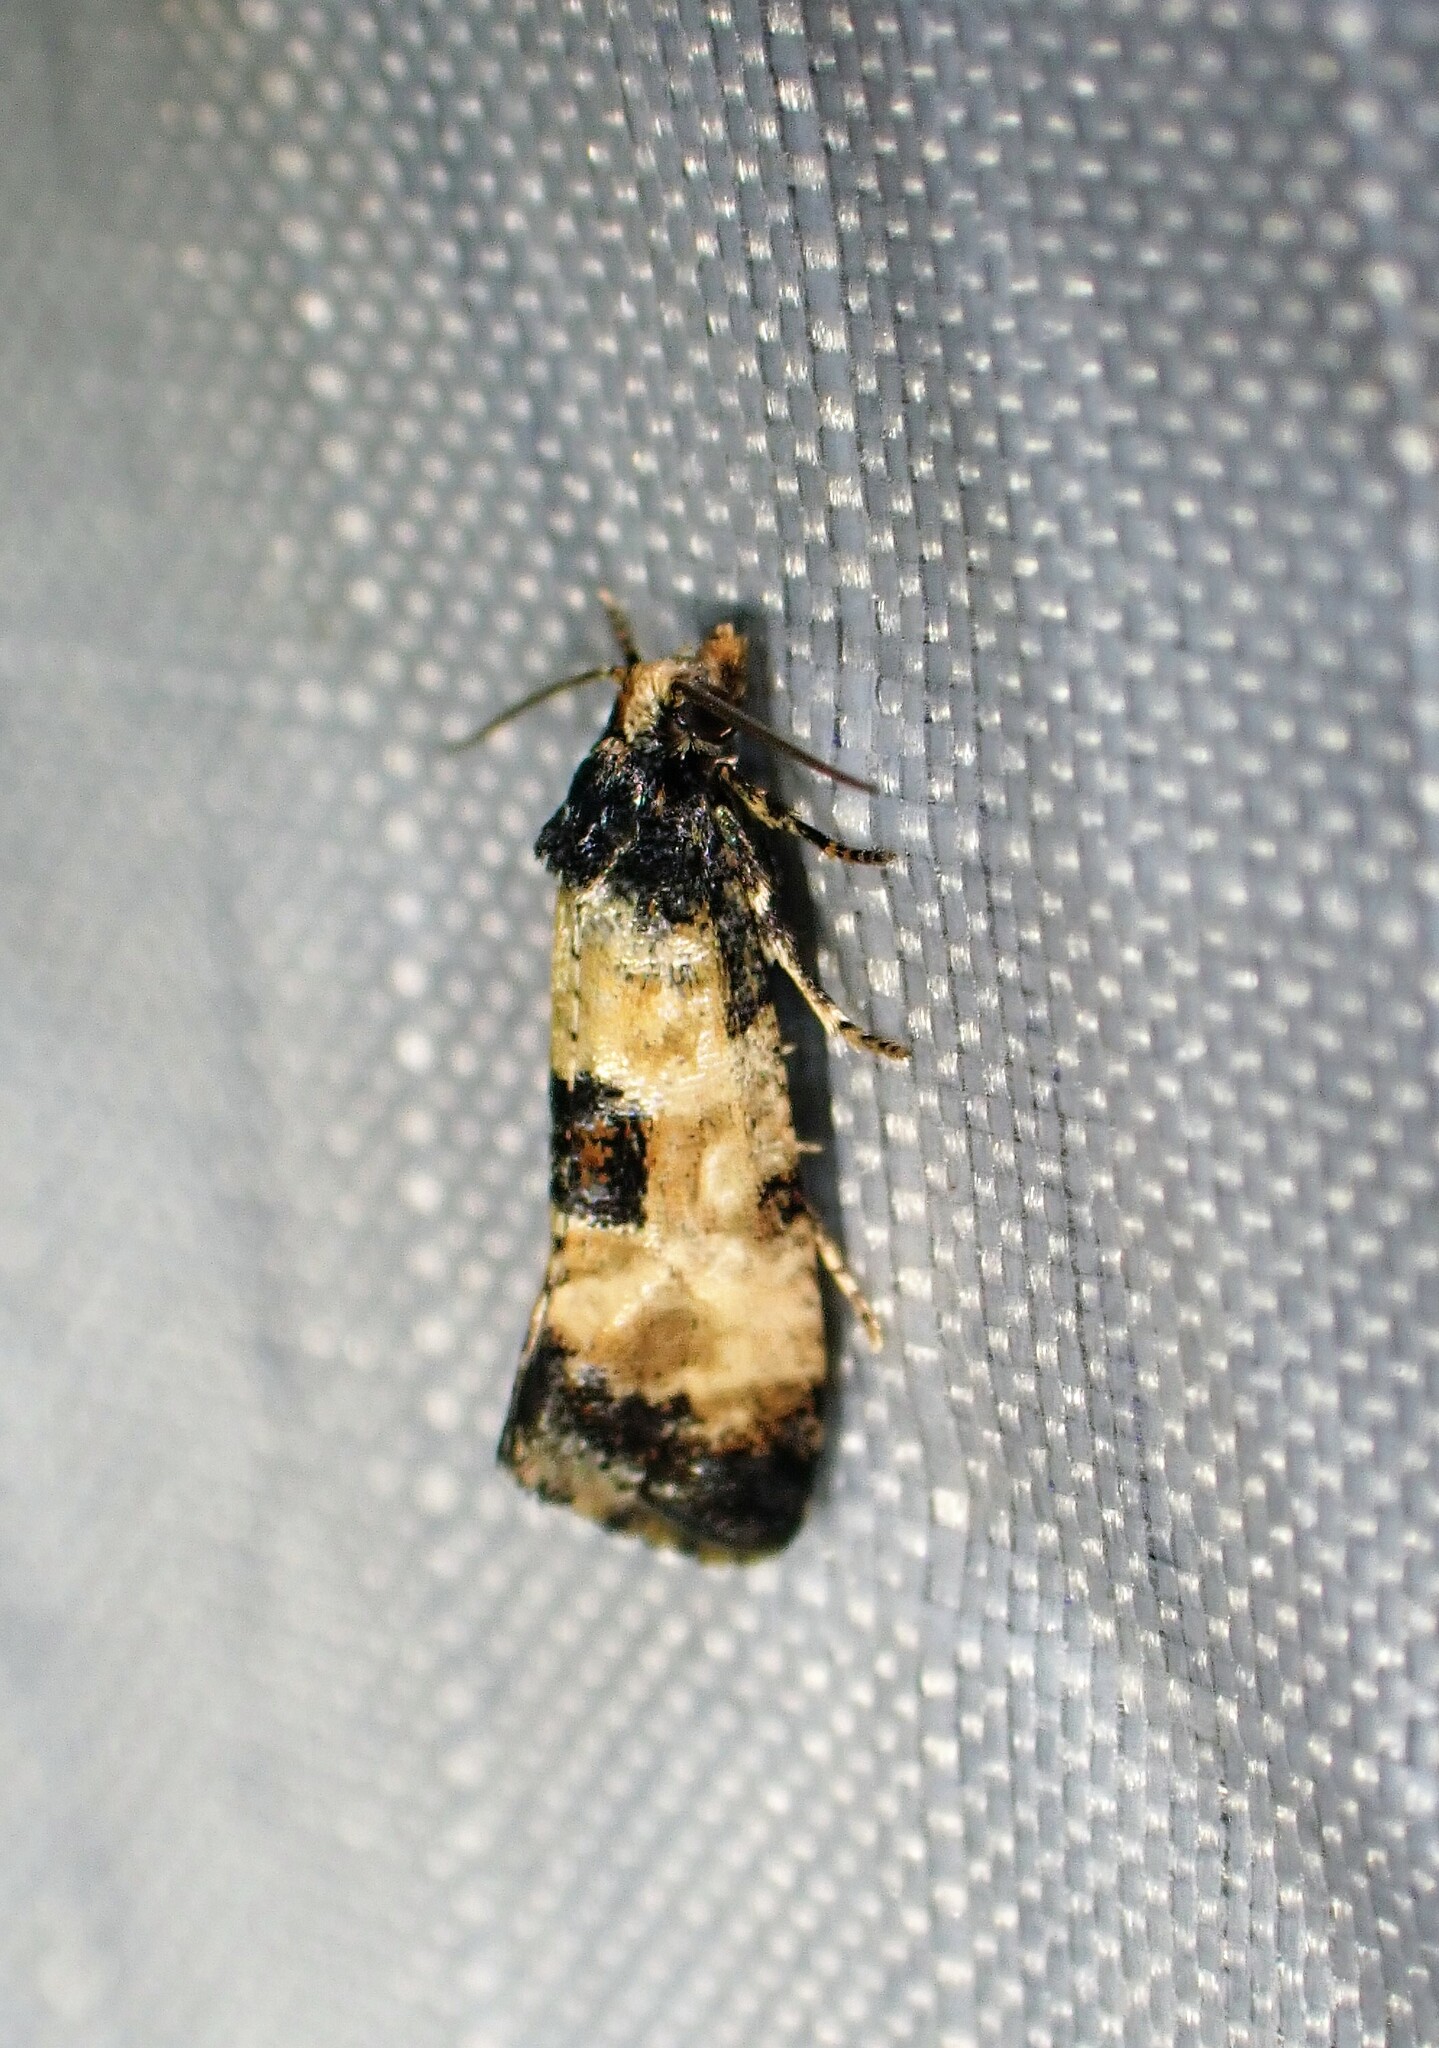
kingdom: Animalia
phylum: Arthropoda
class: Insecta
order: Lepidoptera
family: Tortricidae
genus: Cochylis
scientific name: Cochylis dubitana
